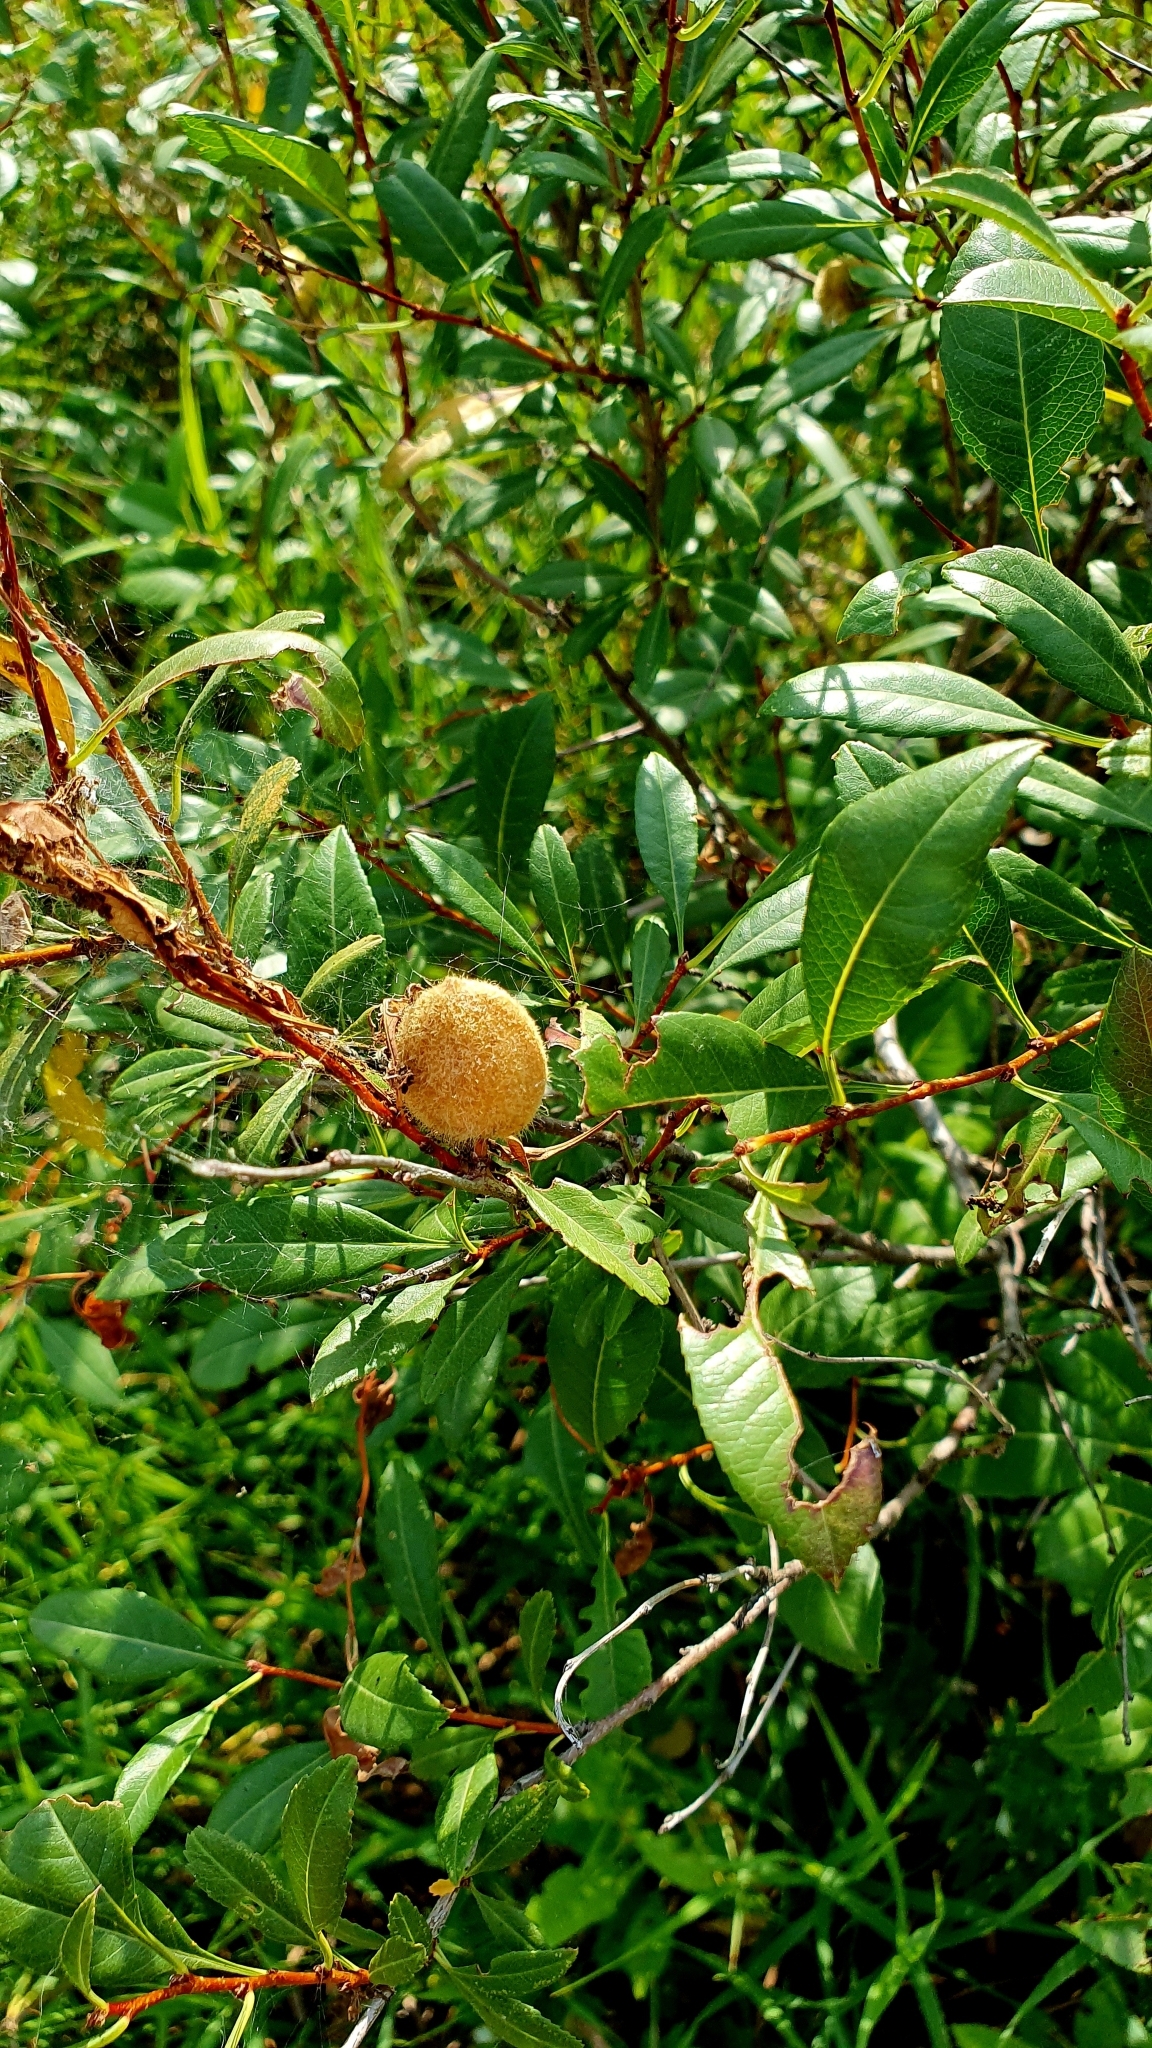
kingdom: Plantae
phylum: Tracheophyta
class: Magnoliopsida
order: Rosales
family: Rosaceae
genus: Prunus
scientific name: Prunus tenella
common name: Dwarf russian almond
